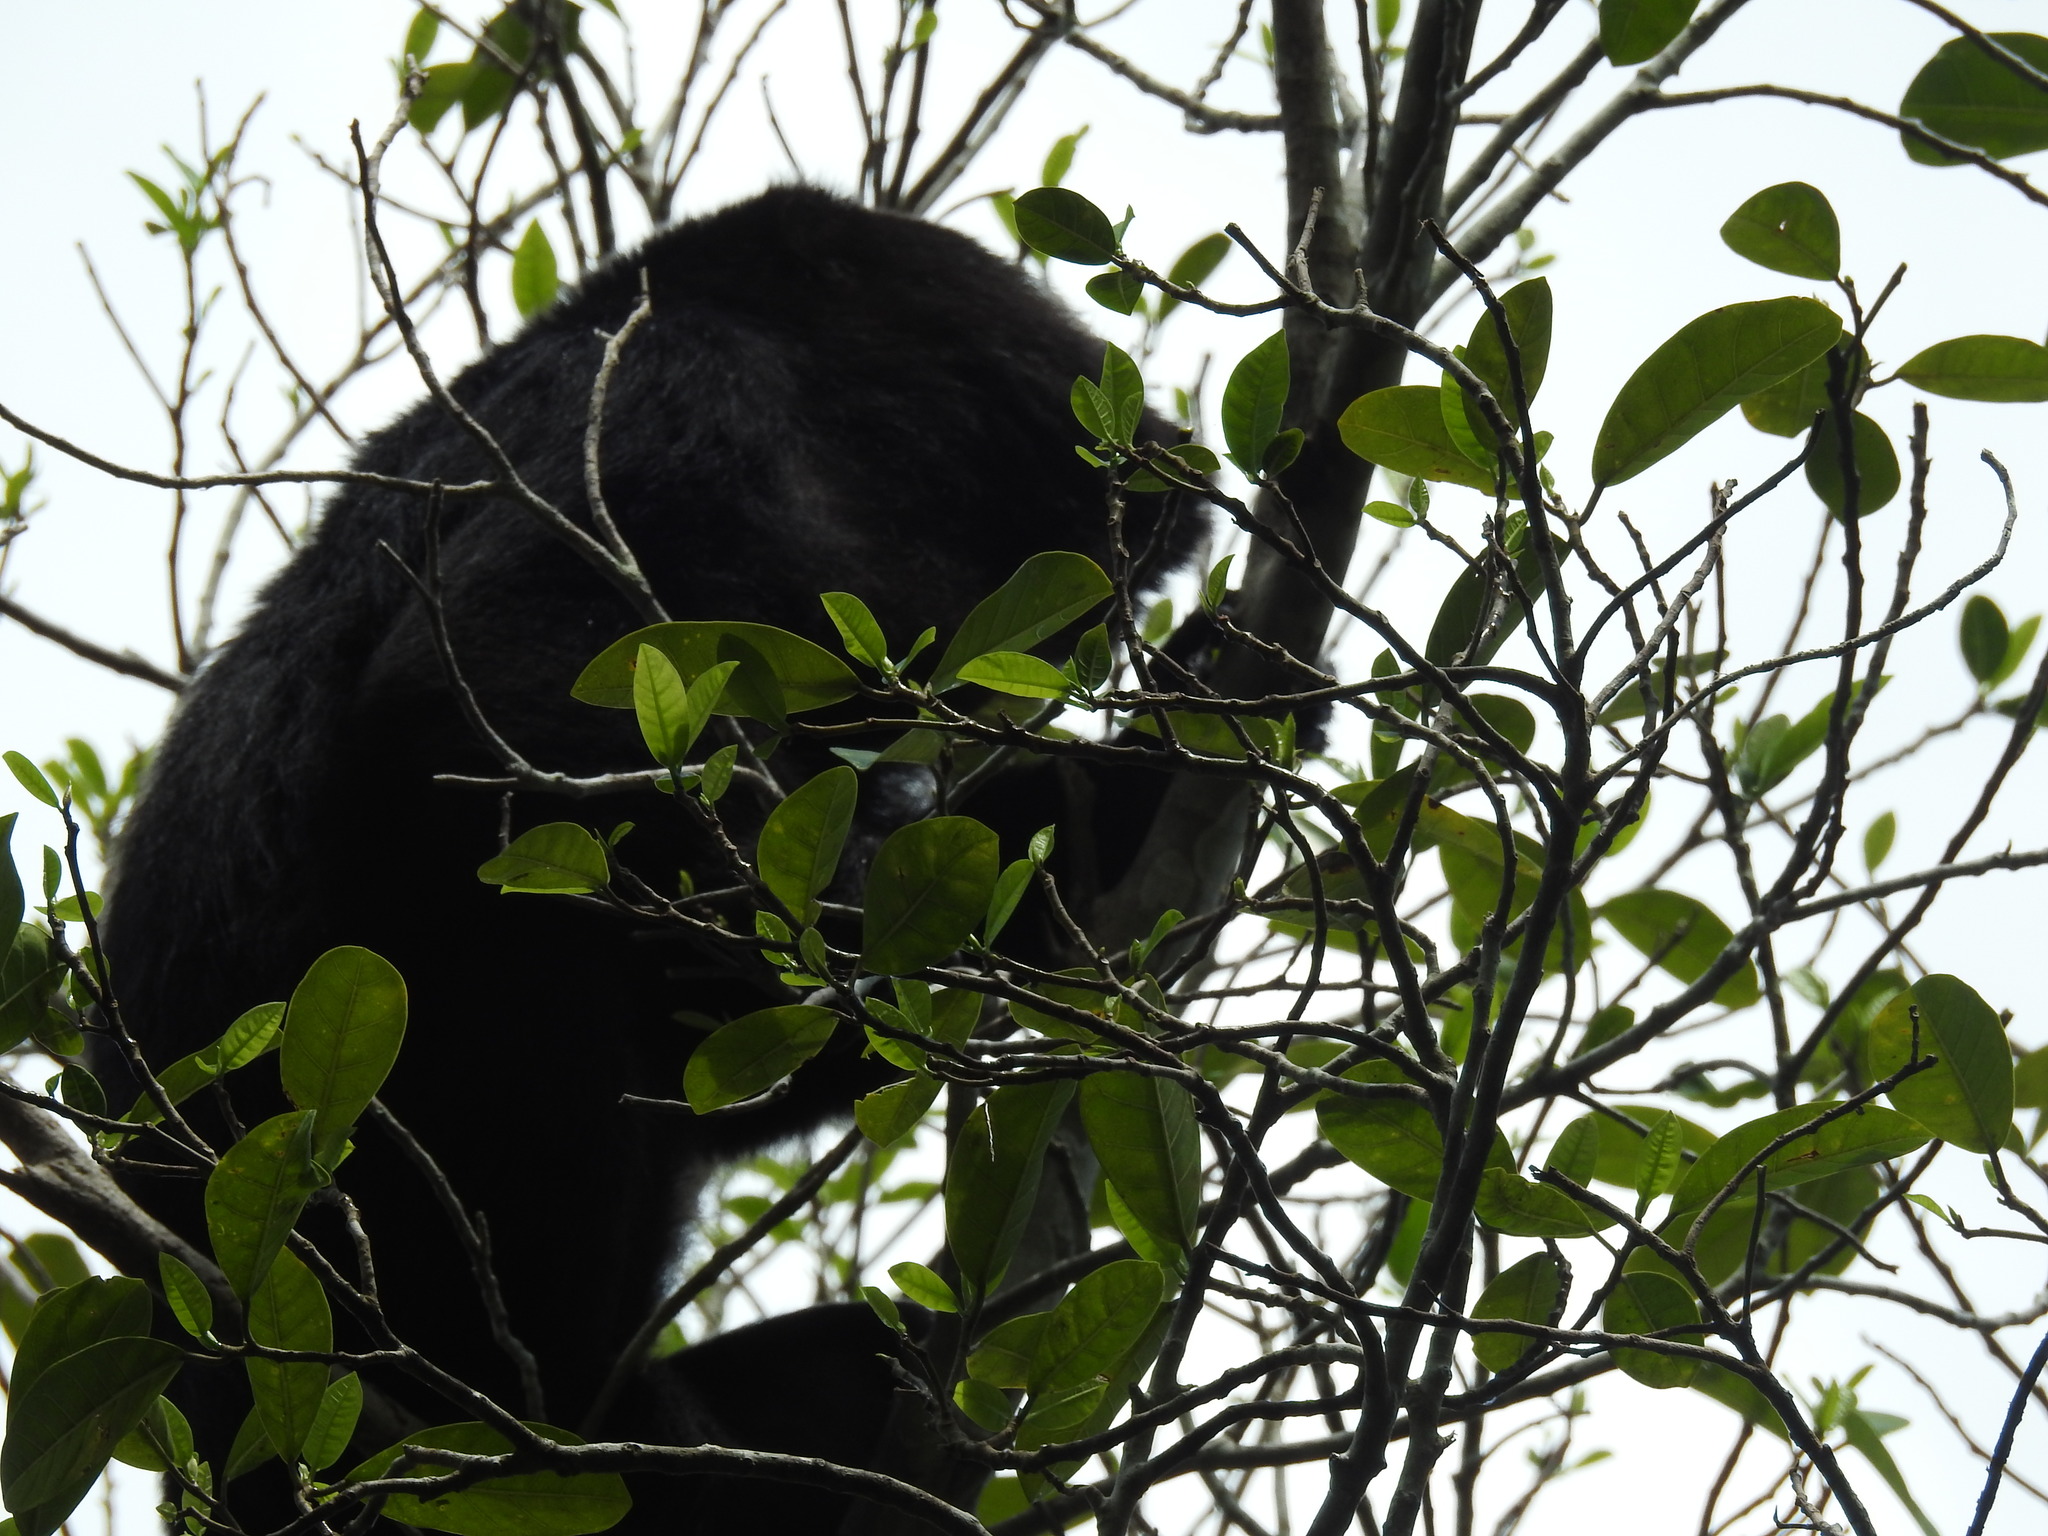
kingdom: Animalia
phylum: Chordata
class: Mammalia
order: Primates
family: Atelidae
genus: Alouatta
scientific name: Alouatta pigra
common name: Guatemalan black howler
